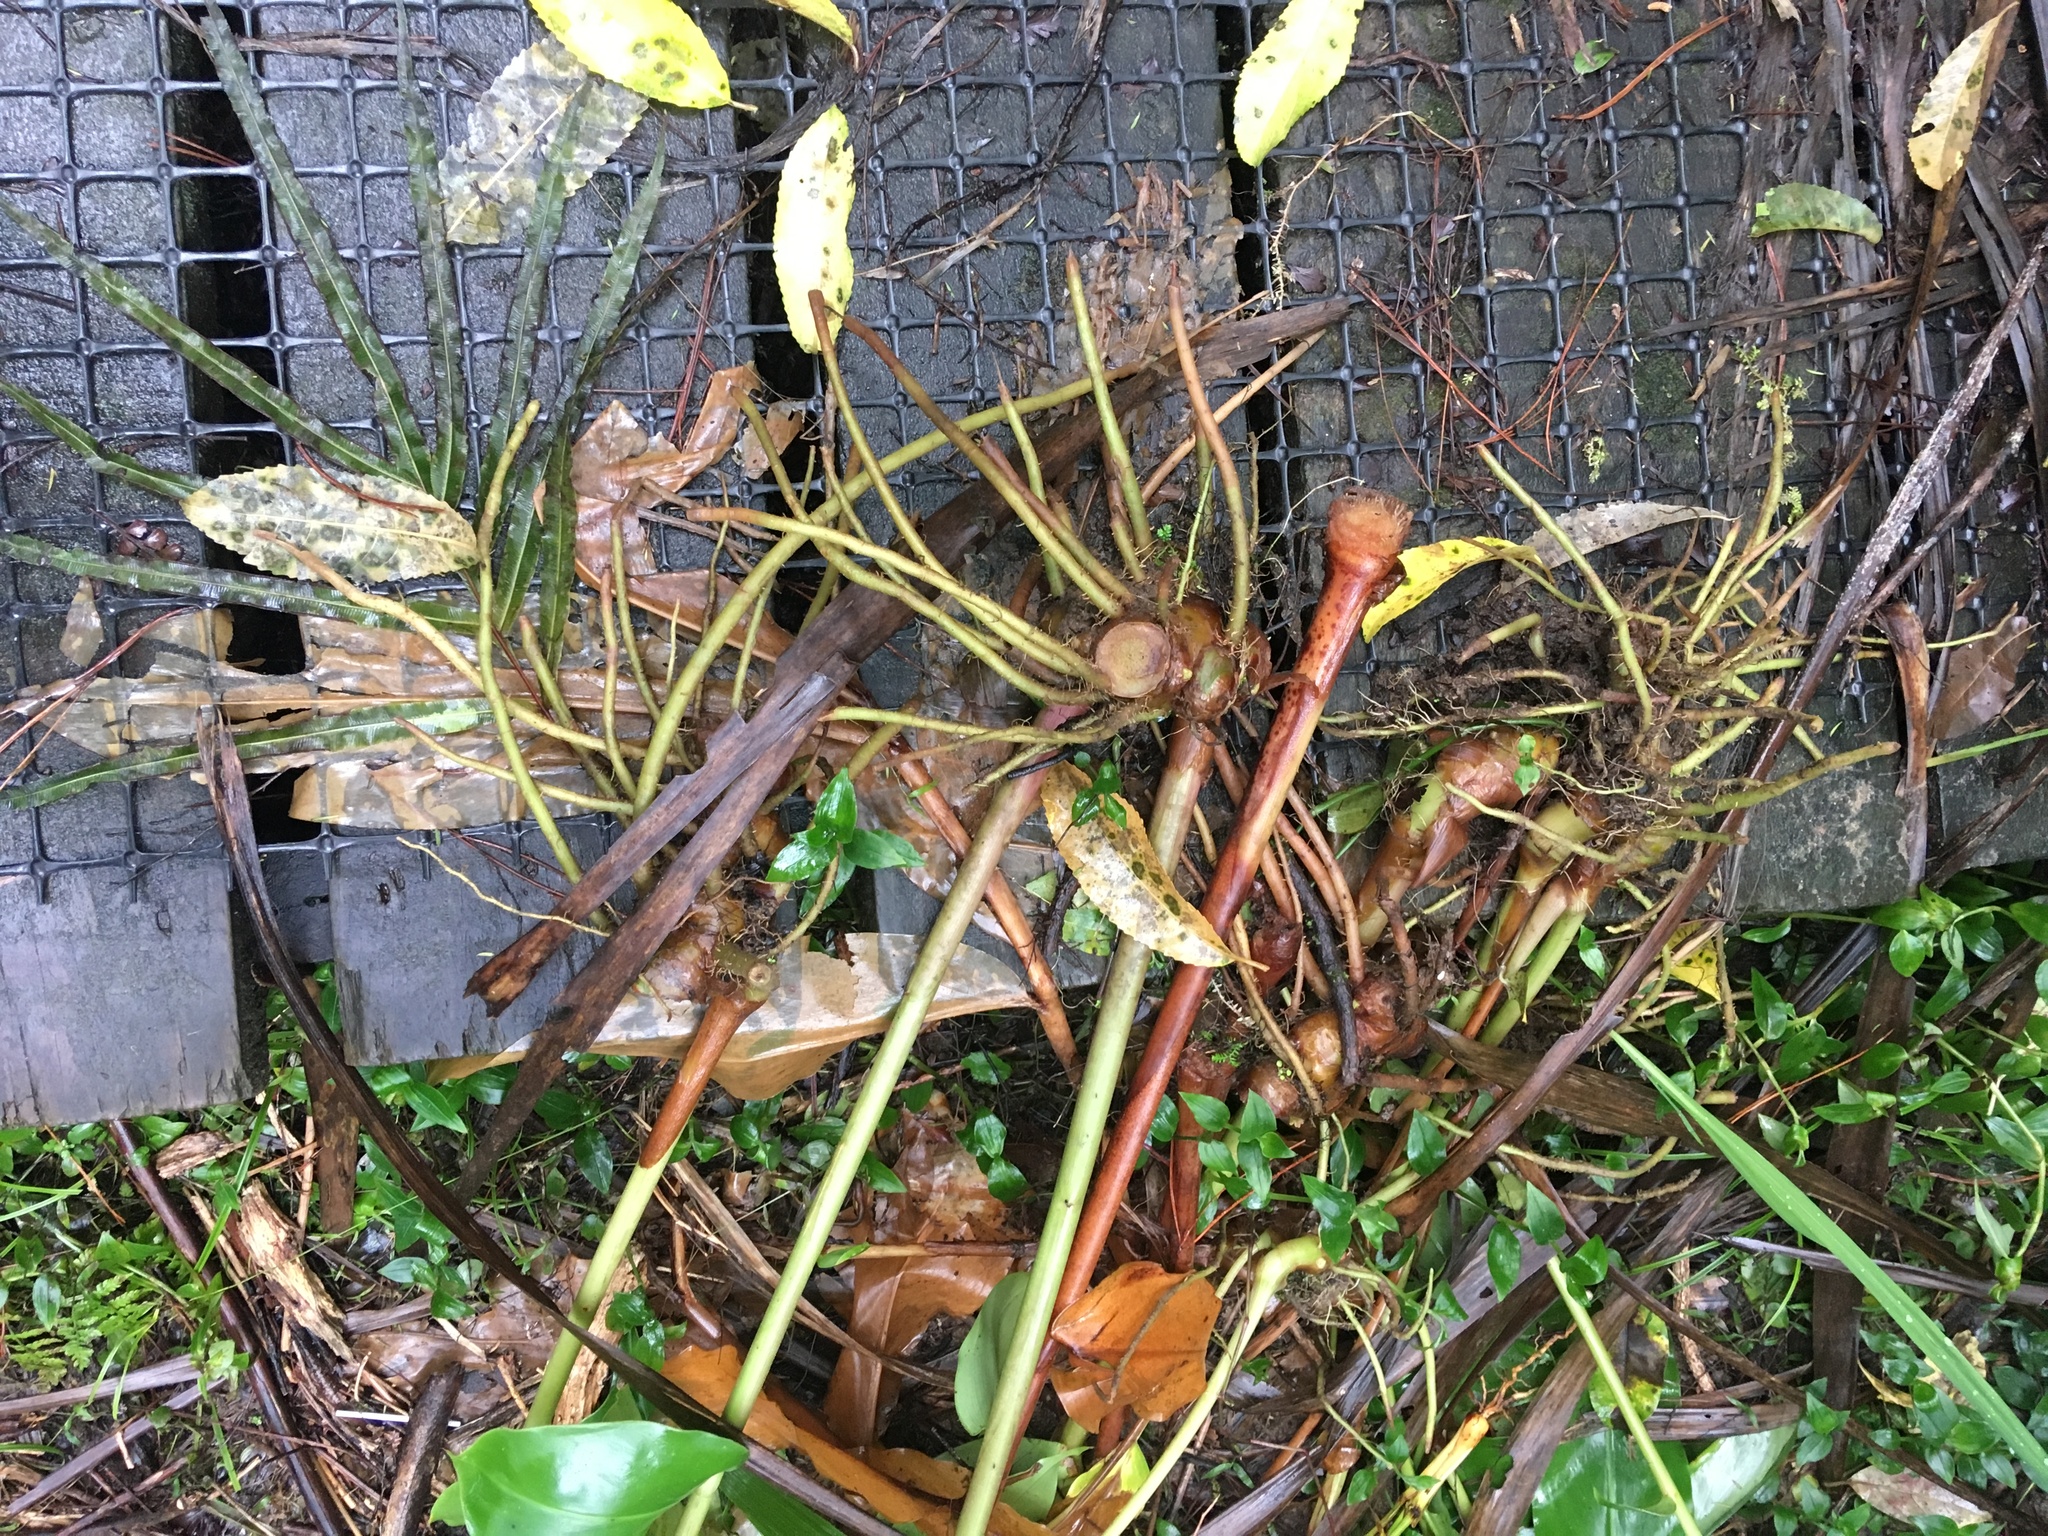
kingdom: Plantae
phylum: Tracheophyta
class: Liliopsida
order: Zingiberales
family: Zingiberaceae
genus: Hedychium
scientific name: Hedychium gardnerianum
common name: Himalayan ginger
